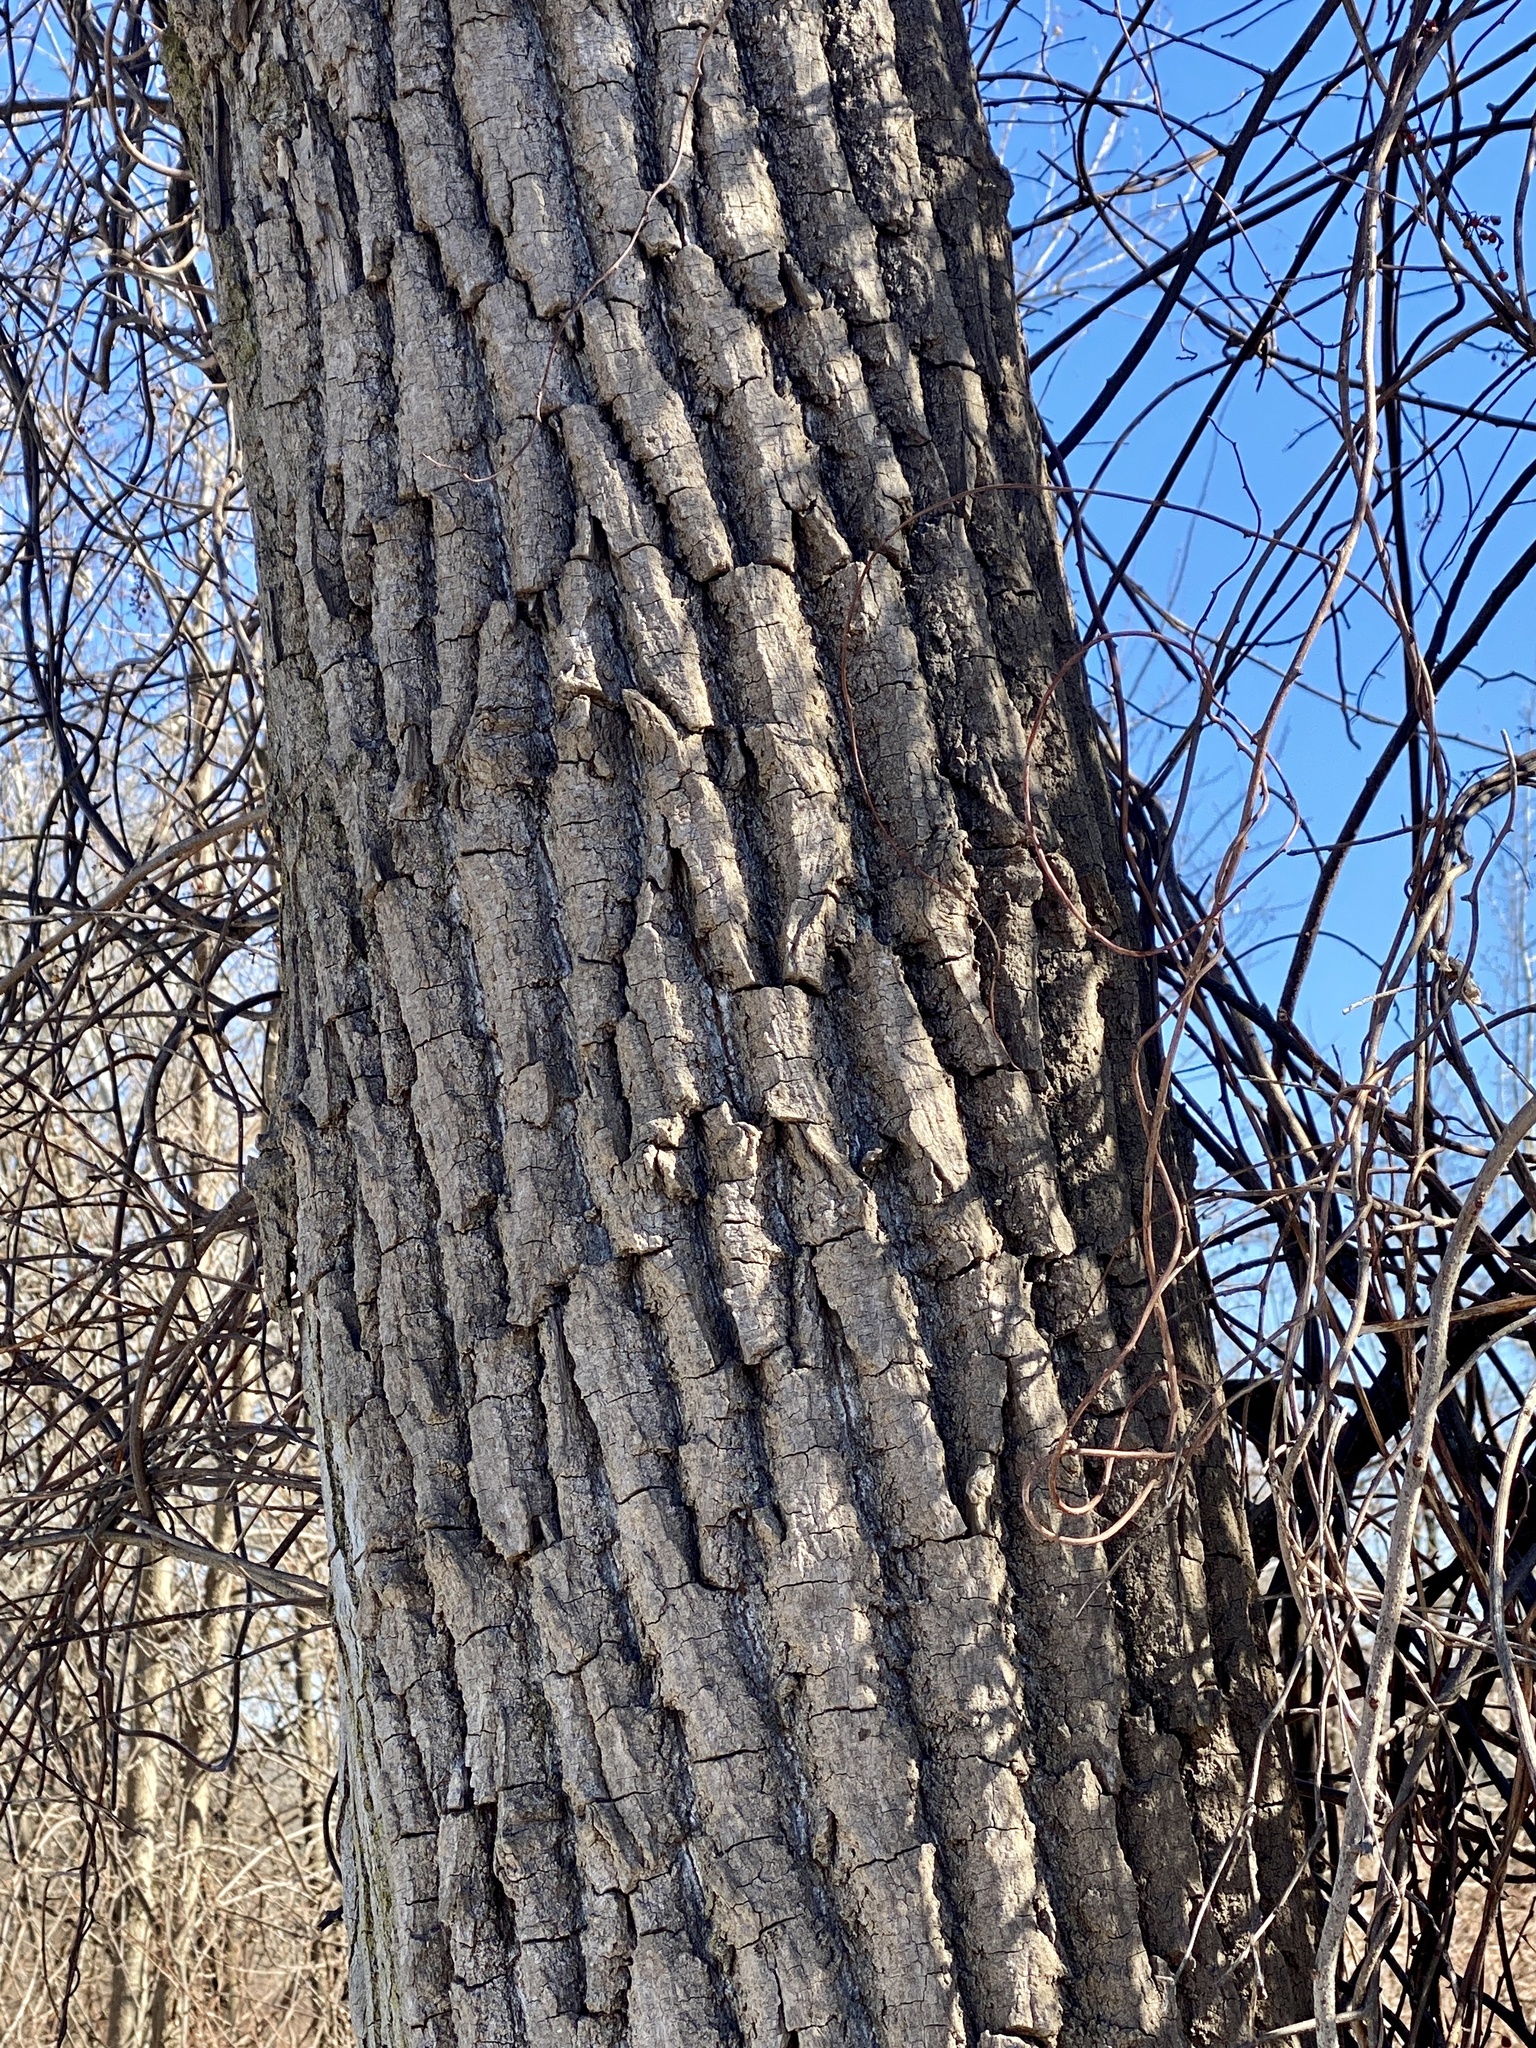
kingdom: Plantae
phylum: Tracheophyta
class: Magnoliopsida
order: Malpighiales
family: Salicaceae
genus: Populus
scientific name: Populus deltoides
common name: Eastern cottonwood
